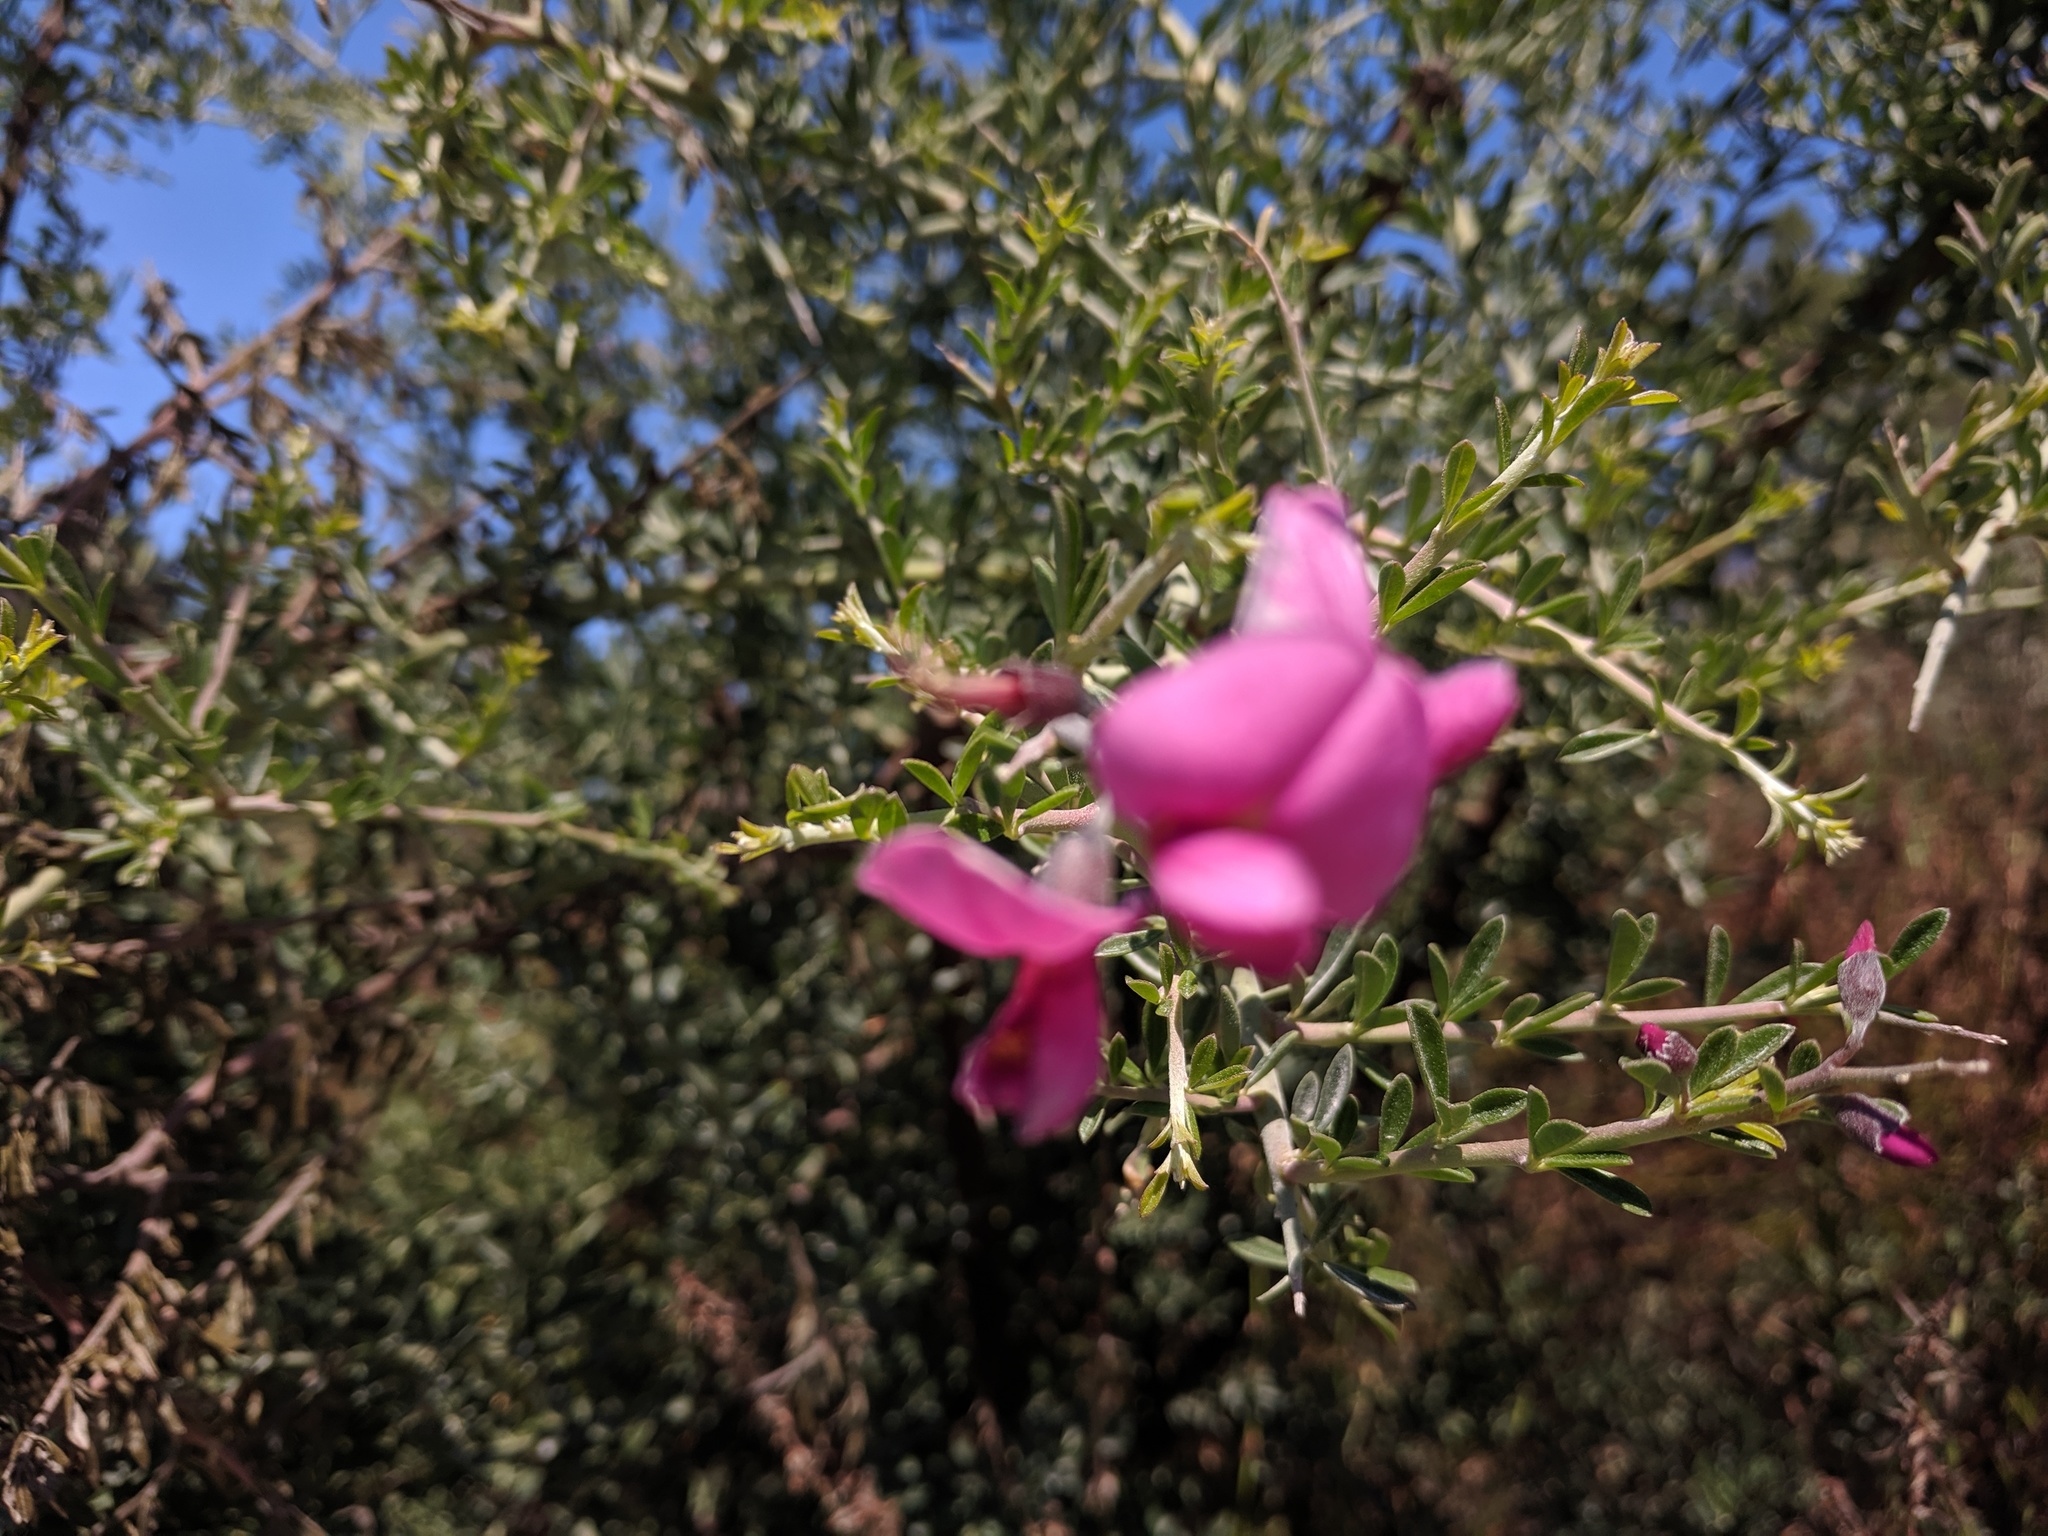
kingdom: Plantae
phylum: Tracheophyta
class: Magnoliopsida
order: Fabales
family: Fabaceae
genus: Pickeringia
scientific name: Pickeringia montana
